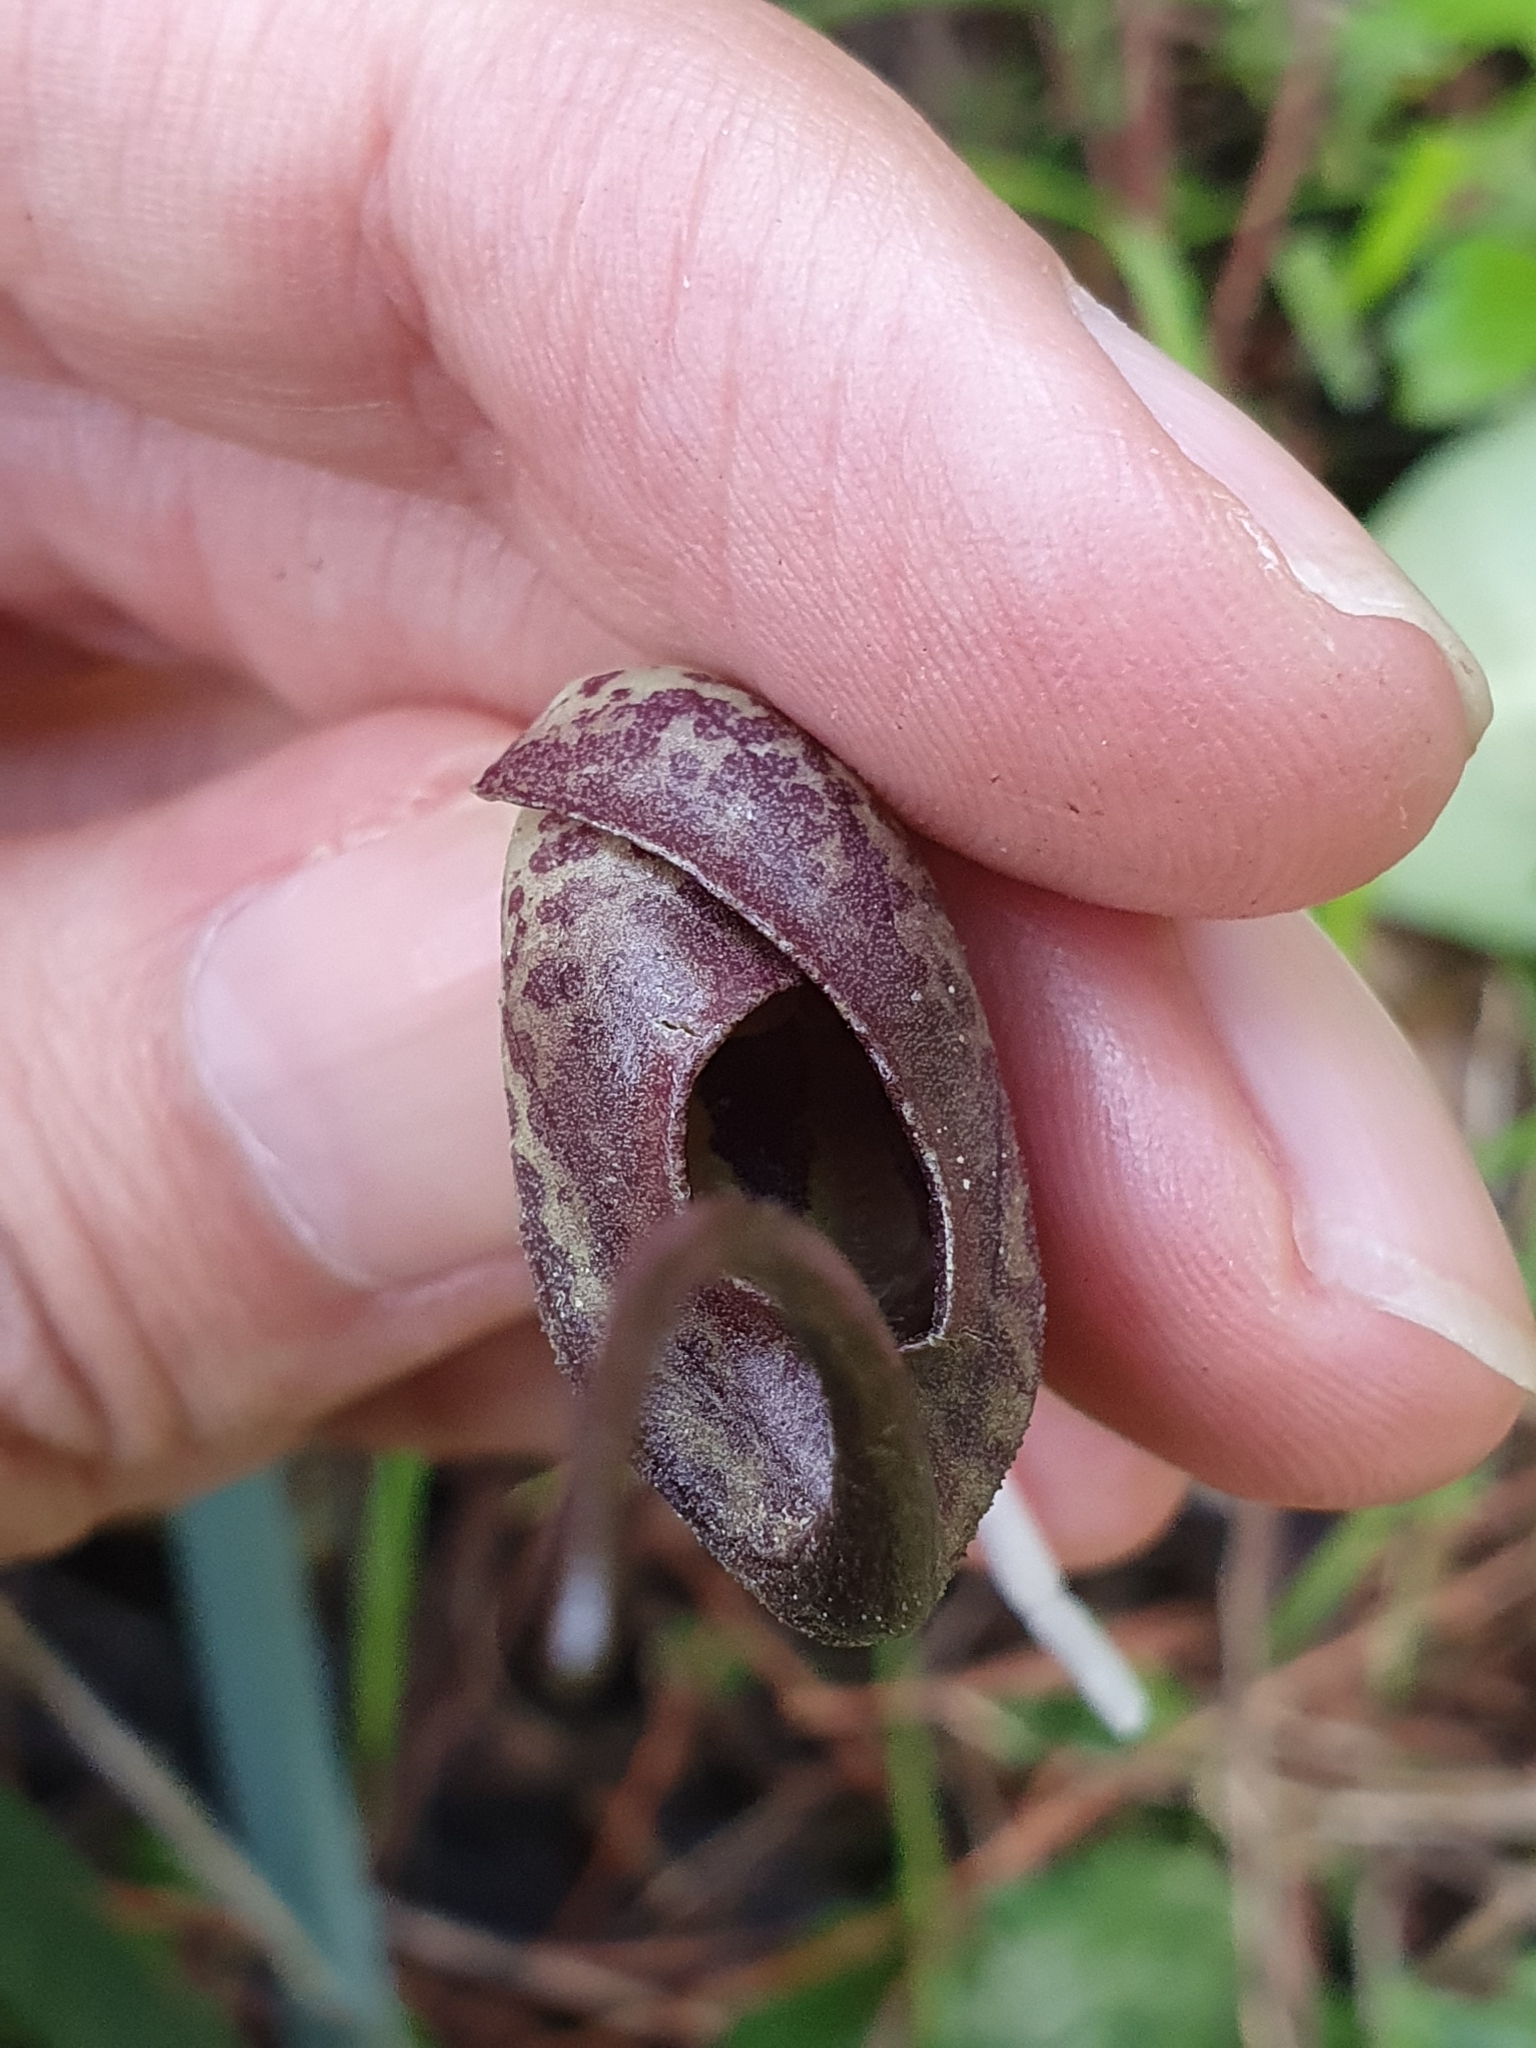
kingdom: Plantae
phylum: Tracheophyta
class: Liliopsida
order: Alismatales
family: Araceae
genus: Ambrosina
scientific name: Ambrosina bassii
